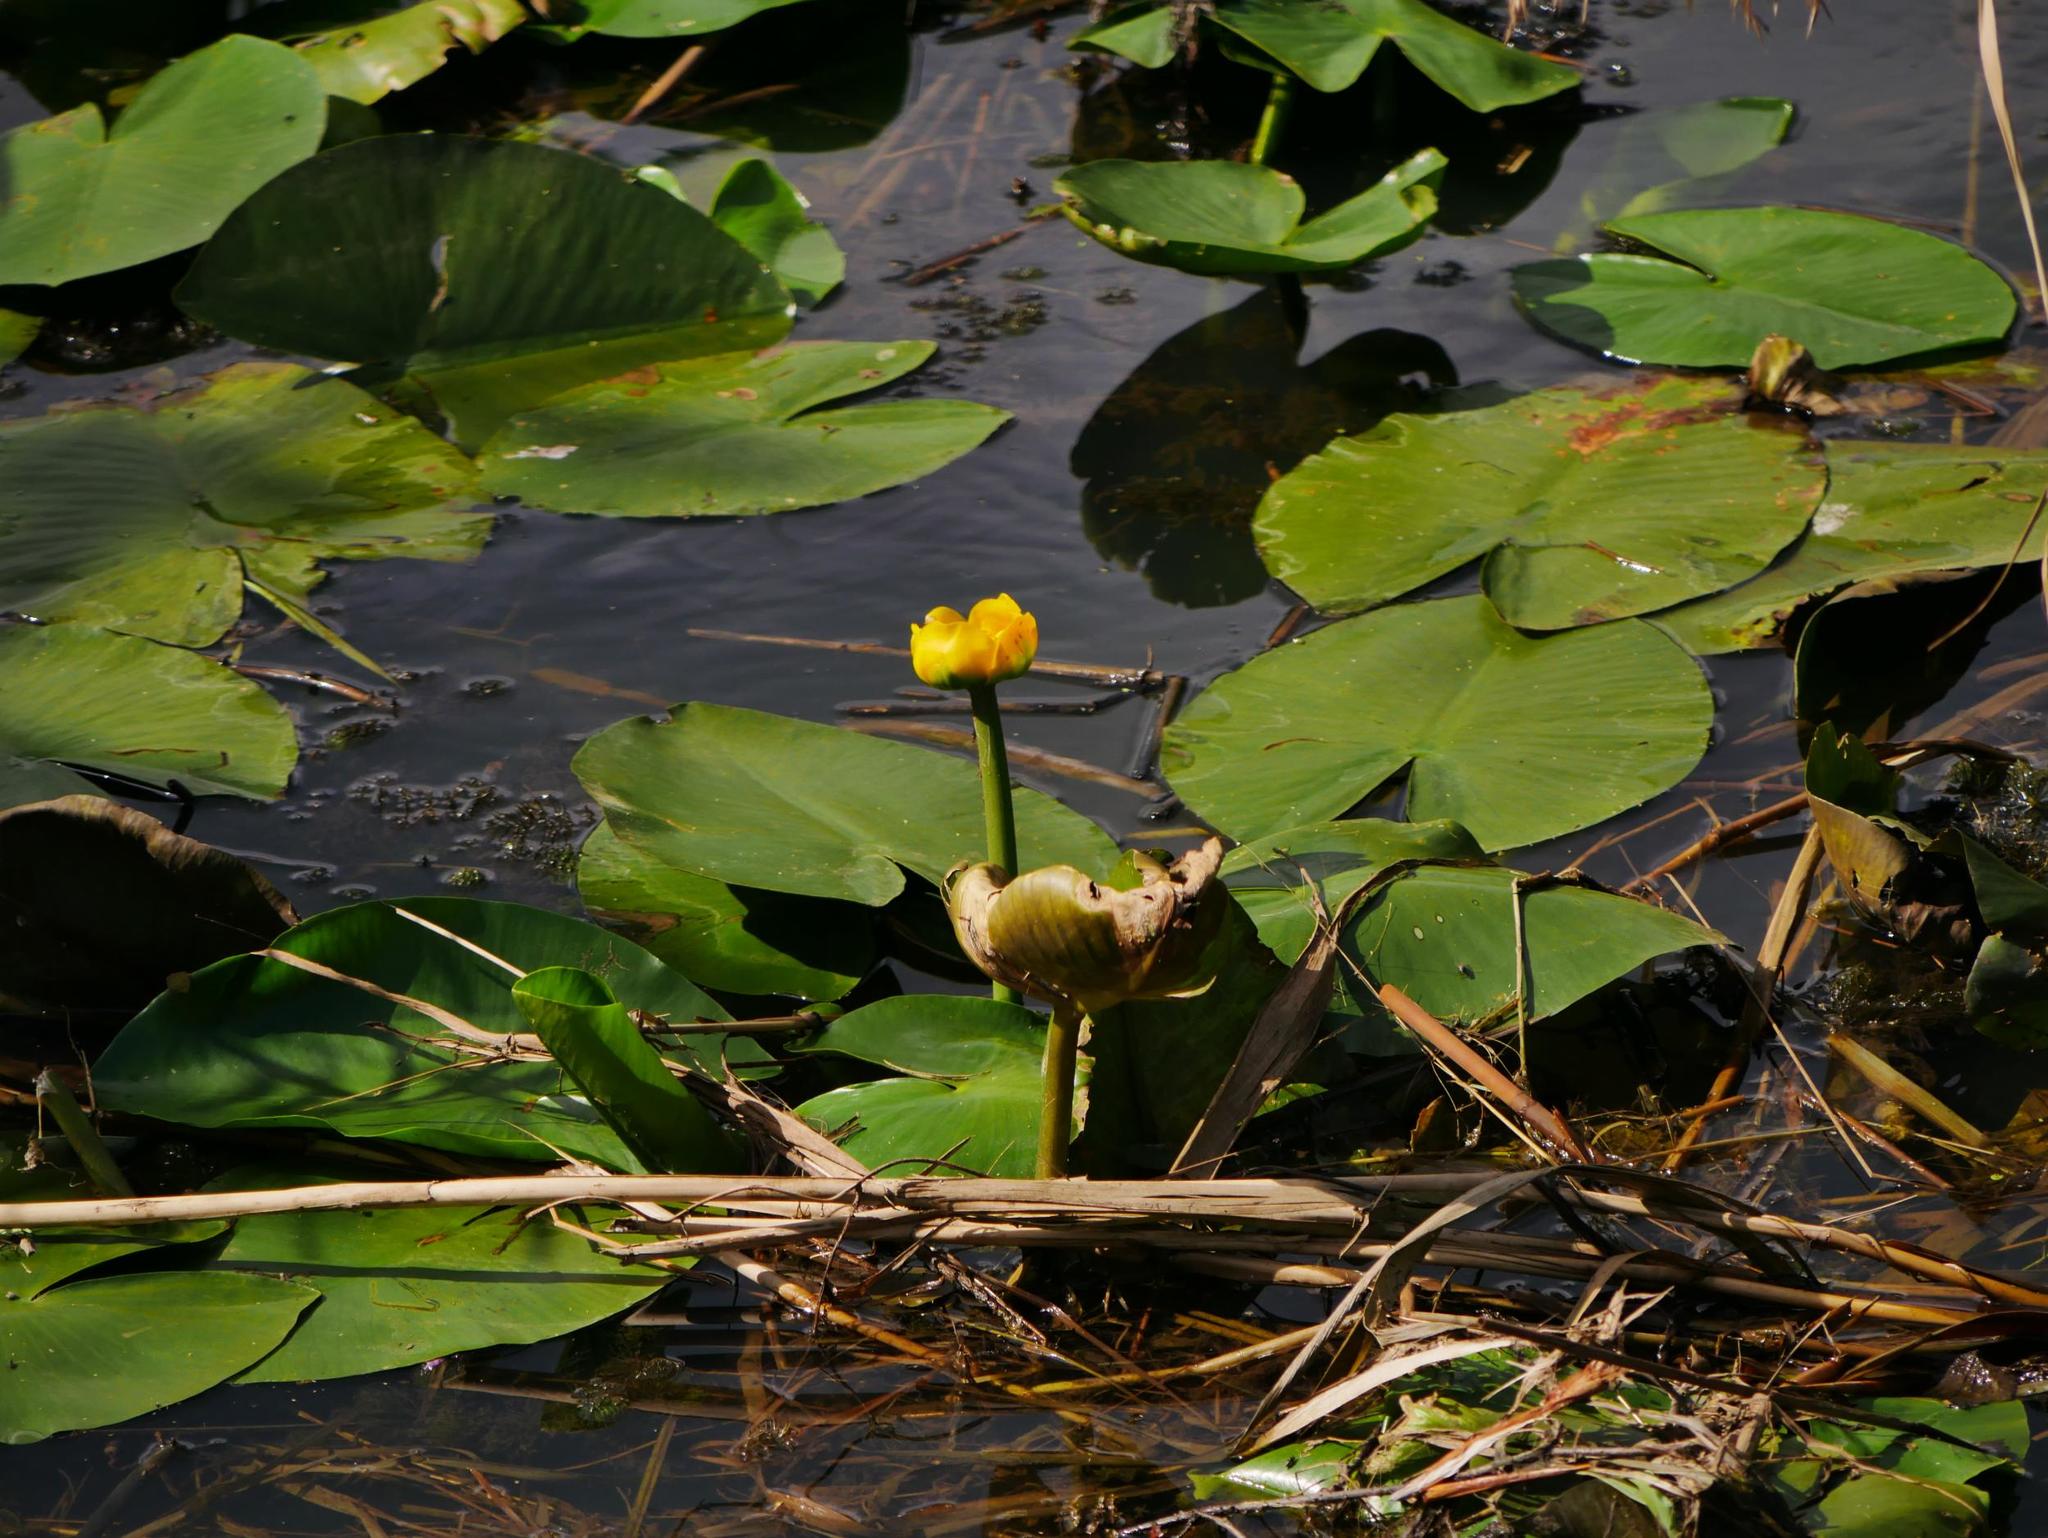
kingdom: Plantae
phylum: Tracheophyta
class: Magnoliopsida
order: Nymphaeales
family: Nymphaeaceae
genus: Nuphar
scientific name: Nuphar lutea
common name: Yellow water-lily
